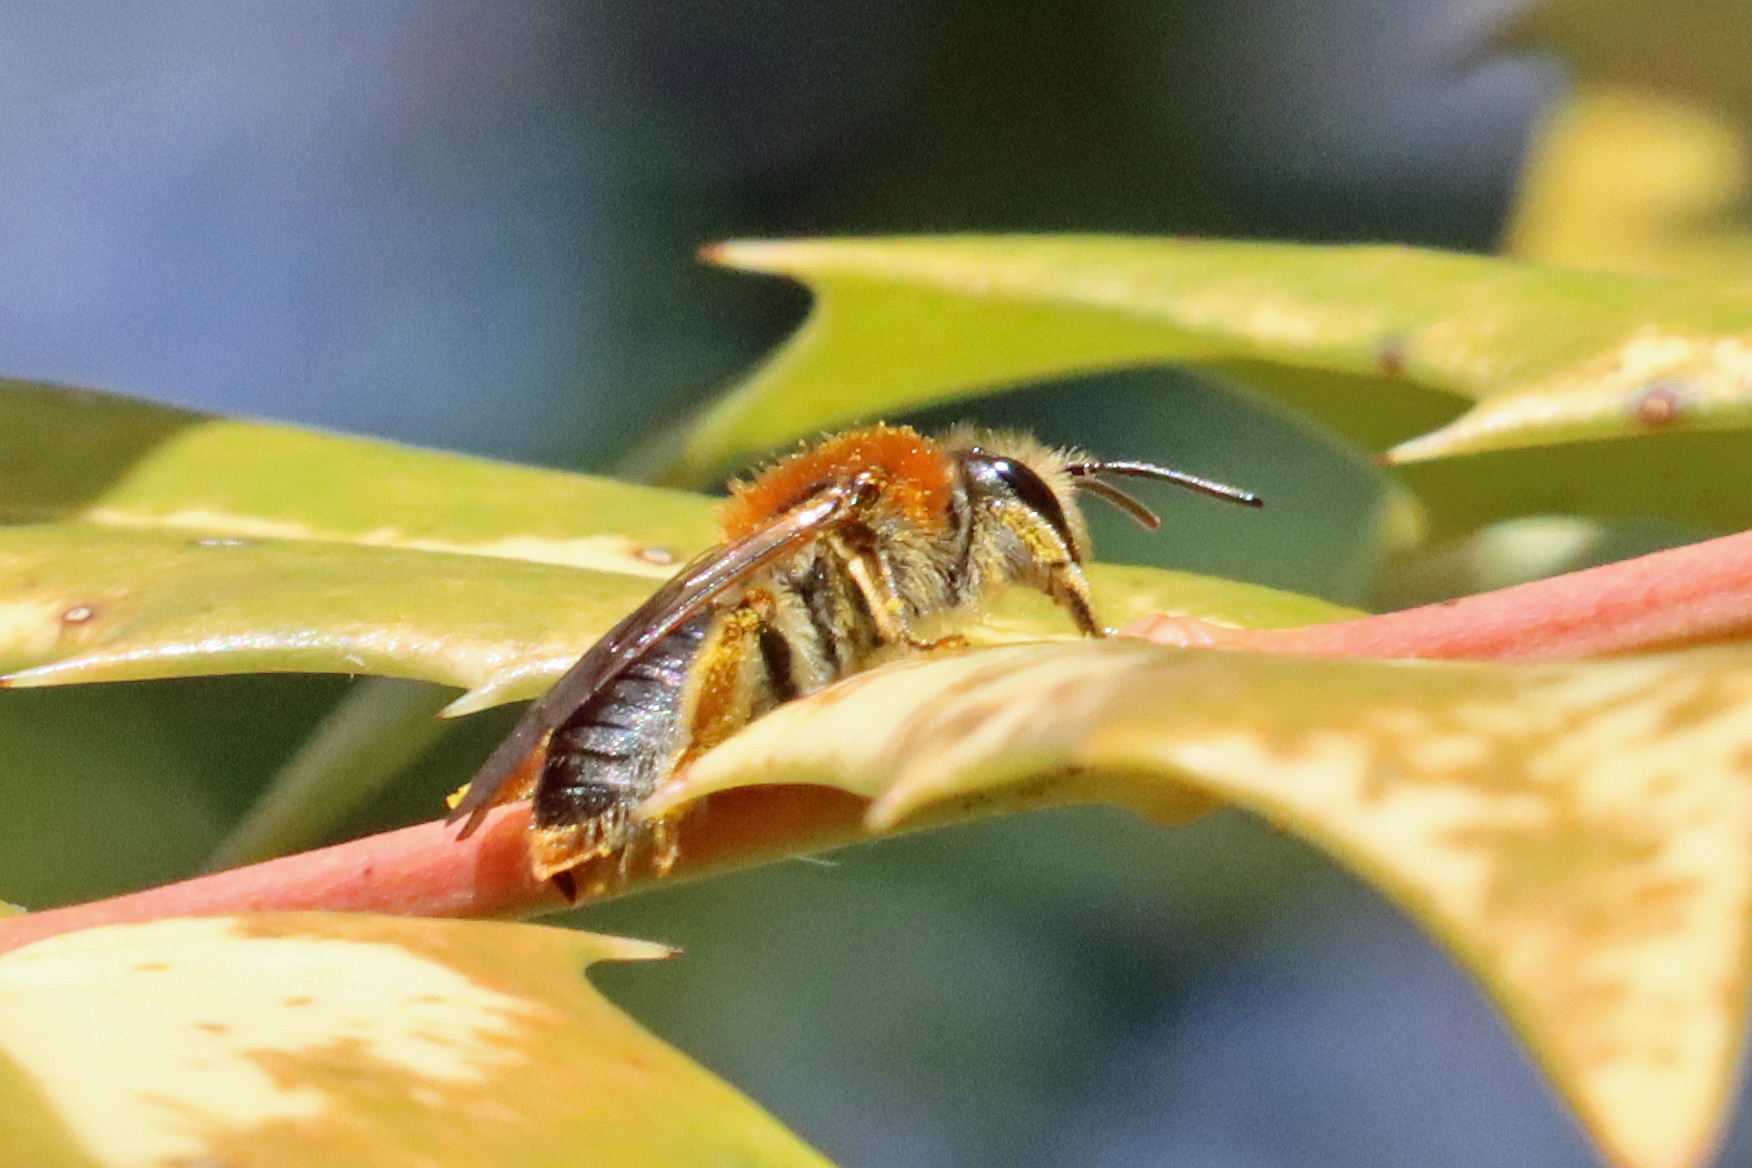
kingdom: Animalia
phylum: Arthropoda
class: Insecta
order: Hymenoptera
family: Andrenidae
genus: Andrena
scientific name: Andrena haemorrhoa
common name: Early mining bee
